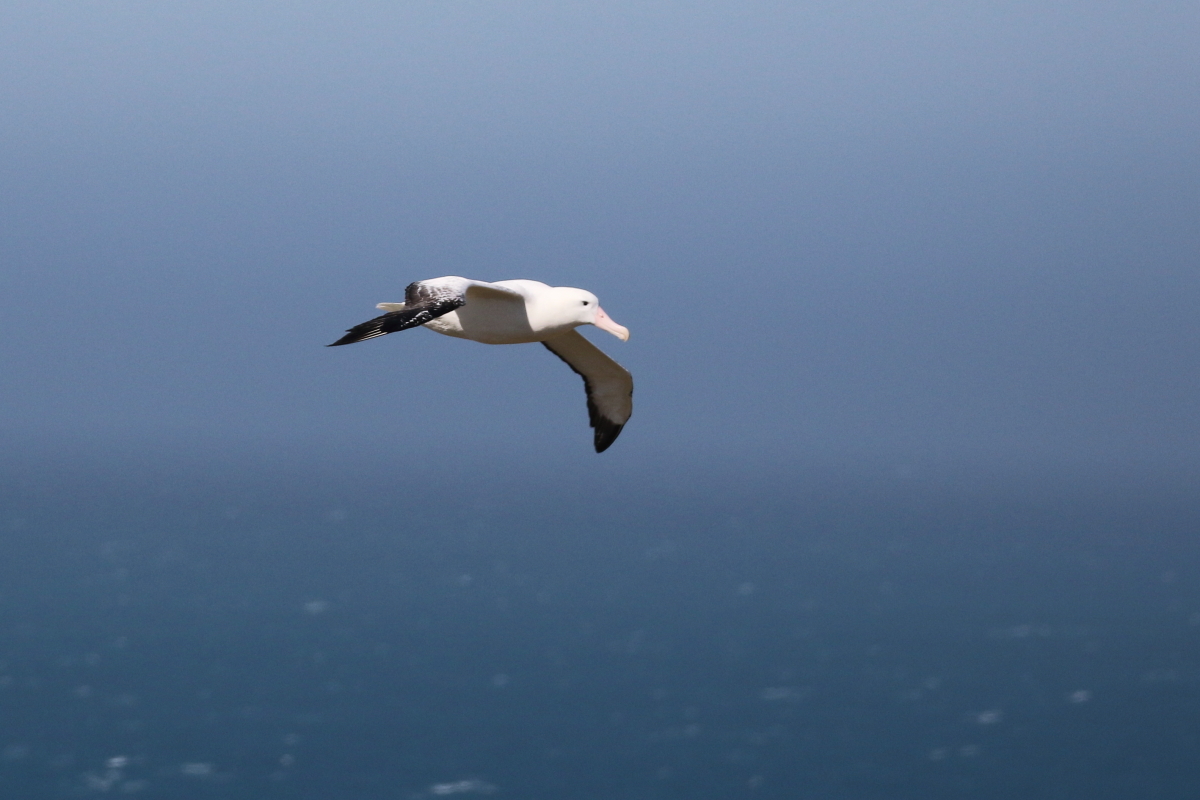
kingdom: Animalia
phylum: Chordata
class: Aves
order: Procellariiformes
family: Diomedeidae
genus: Diomedea
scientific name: Diomedea exulans
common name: Wandering albatross
